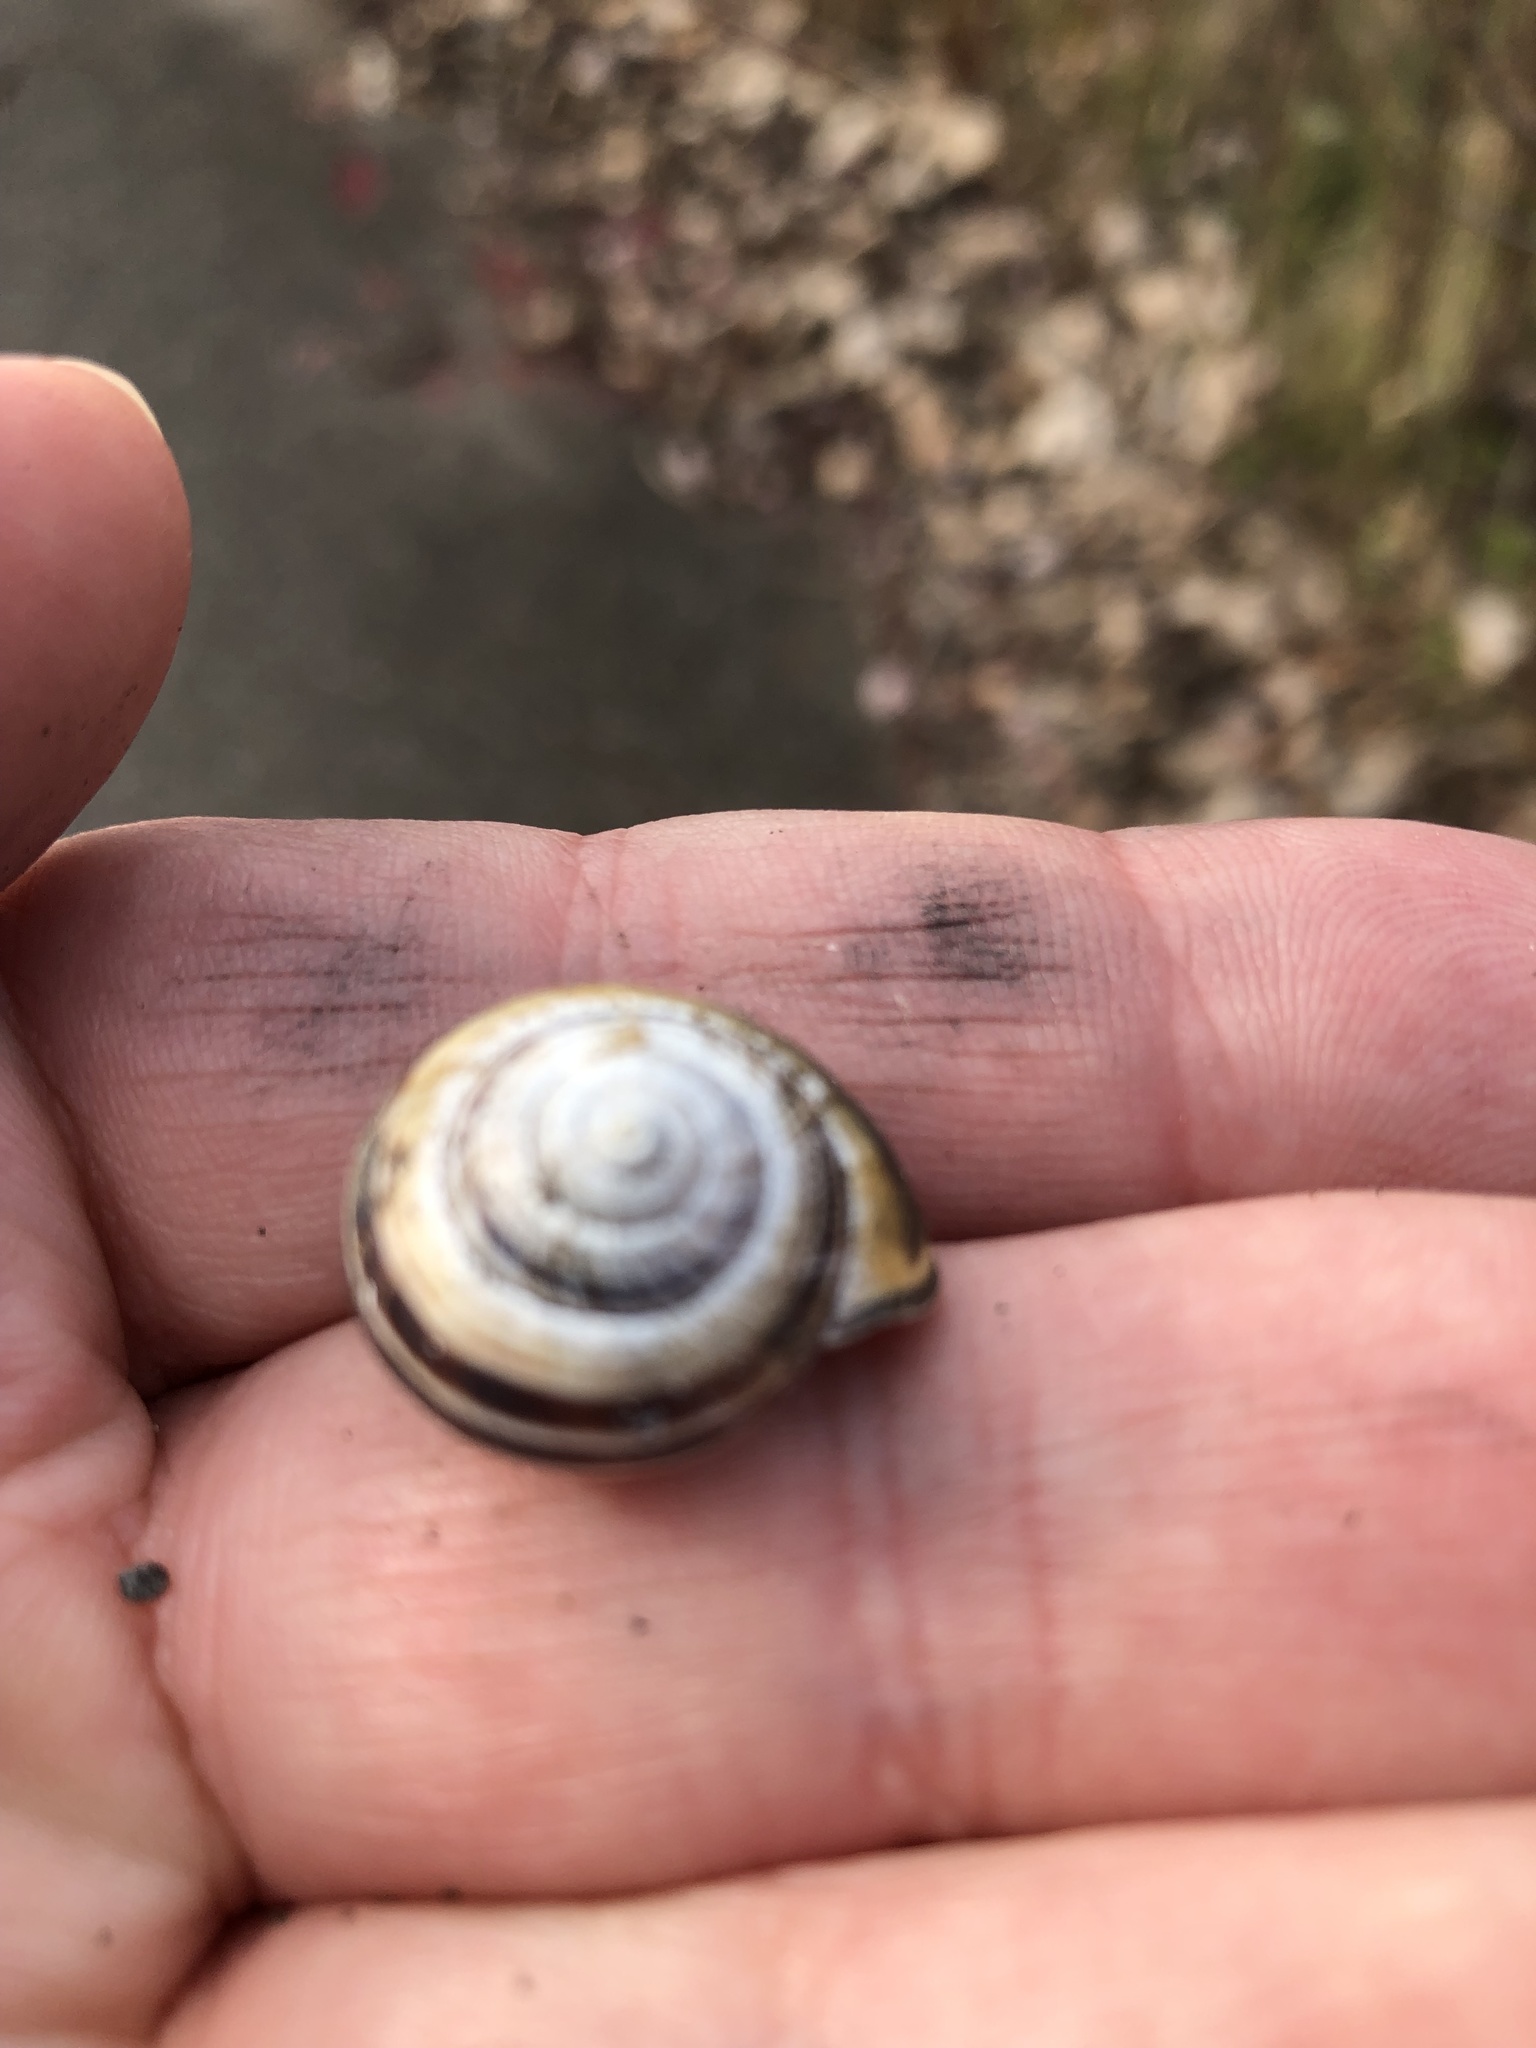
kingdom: Animalia
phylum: Mollusca
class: Gastropoda
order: Stylommatophora
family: Helicidae
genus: Cepaea
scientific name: Cepaea nemoralis
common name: Grovesnail
